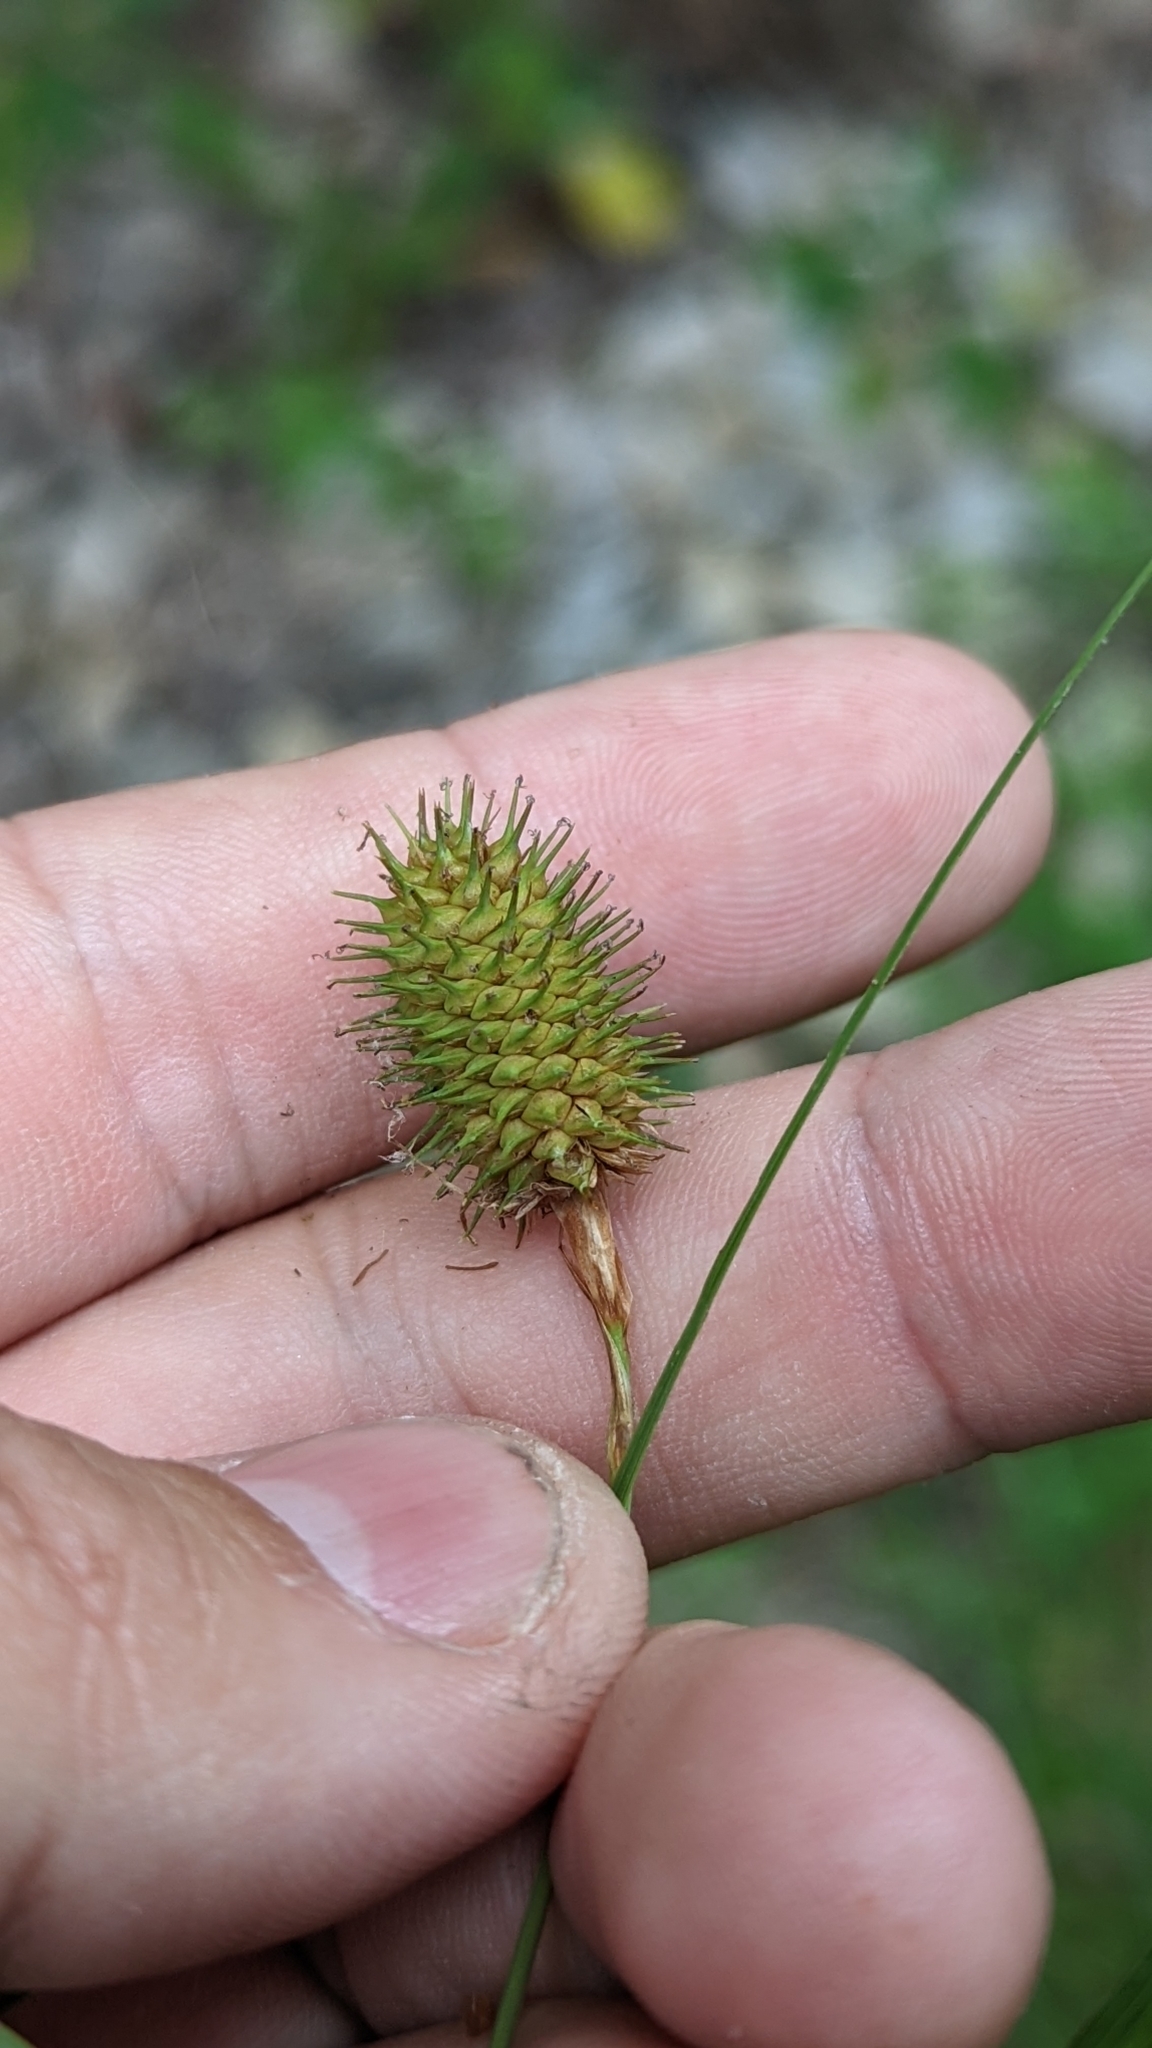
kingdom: Plantae
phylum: Tracheophyta
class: Liliopsida
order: Poales
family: Cyperaceae
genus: Carex
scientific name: Carex squarrosa
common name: Narrow-leaved cattail sedge
